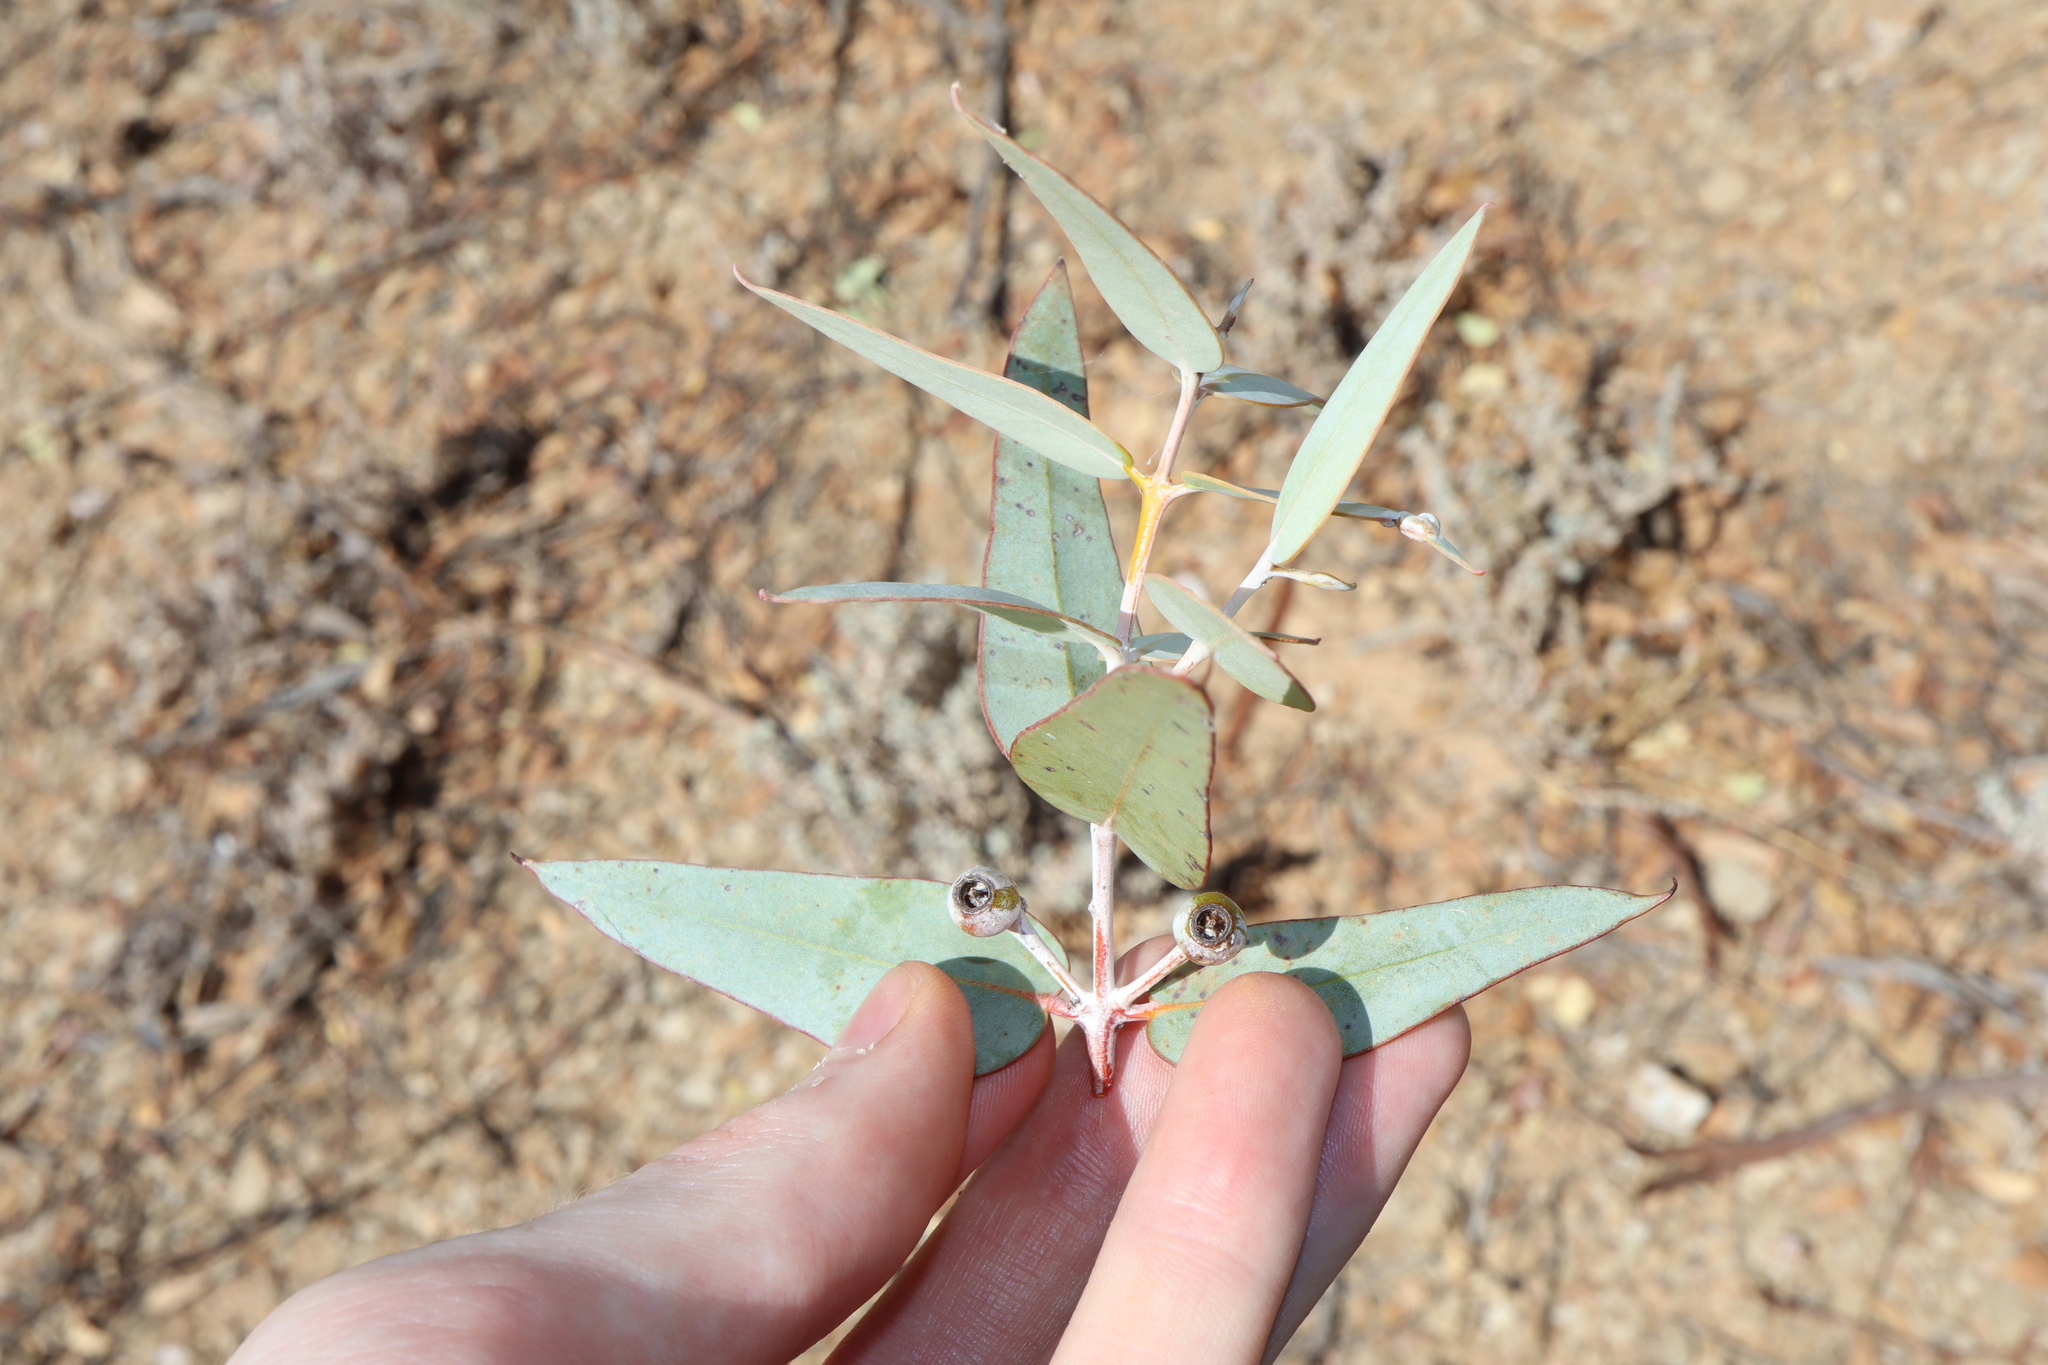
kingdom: Plantae
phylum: Tracheophyta
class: Magnoliopsida
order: Myrtales
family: Myrtaceae
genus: Eucalyptus
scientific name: Eucalyptus gillii
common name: Broken hill mallee
